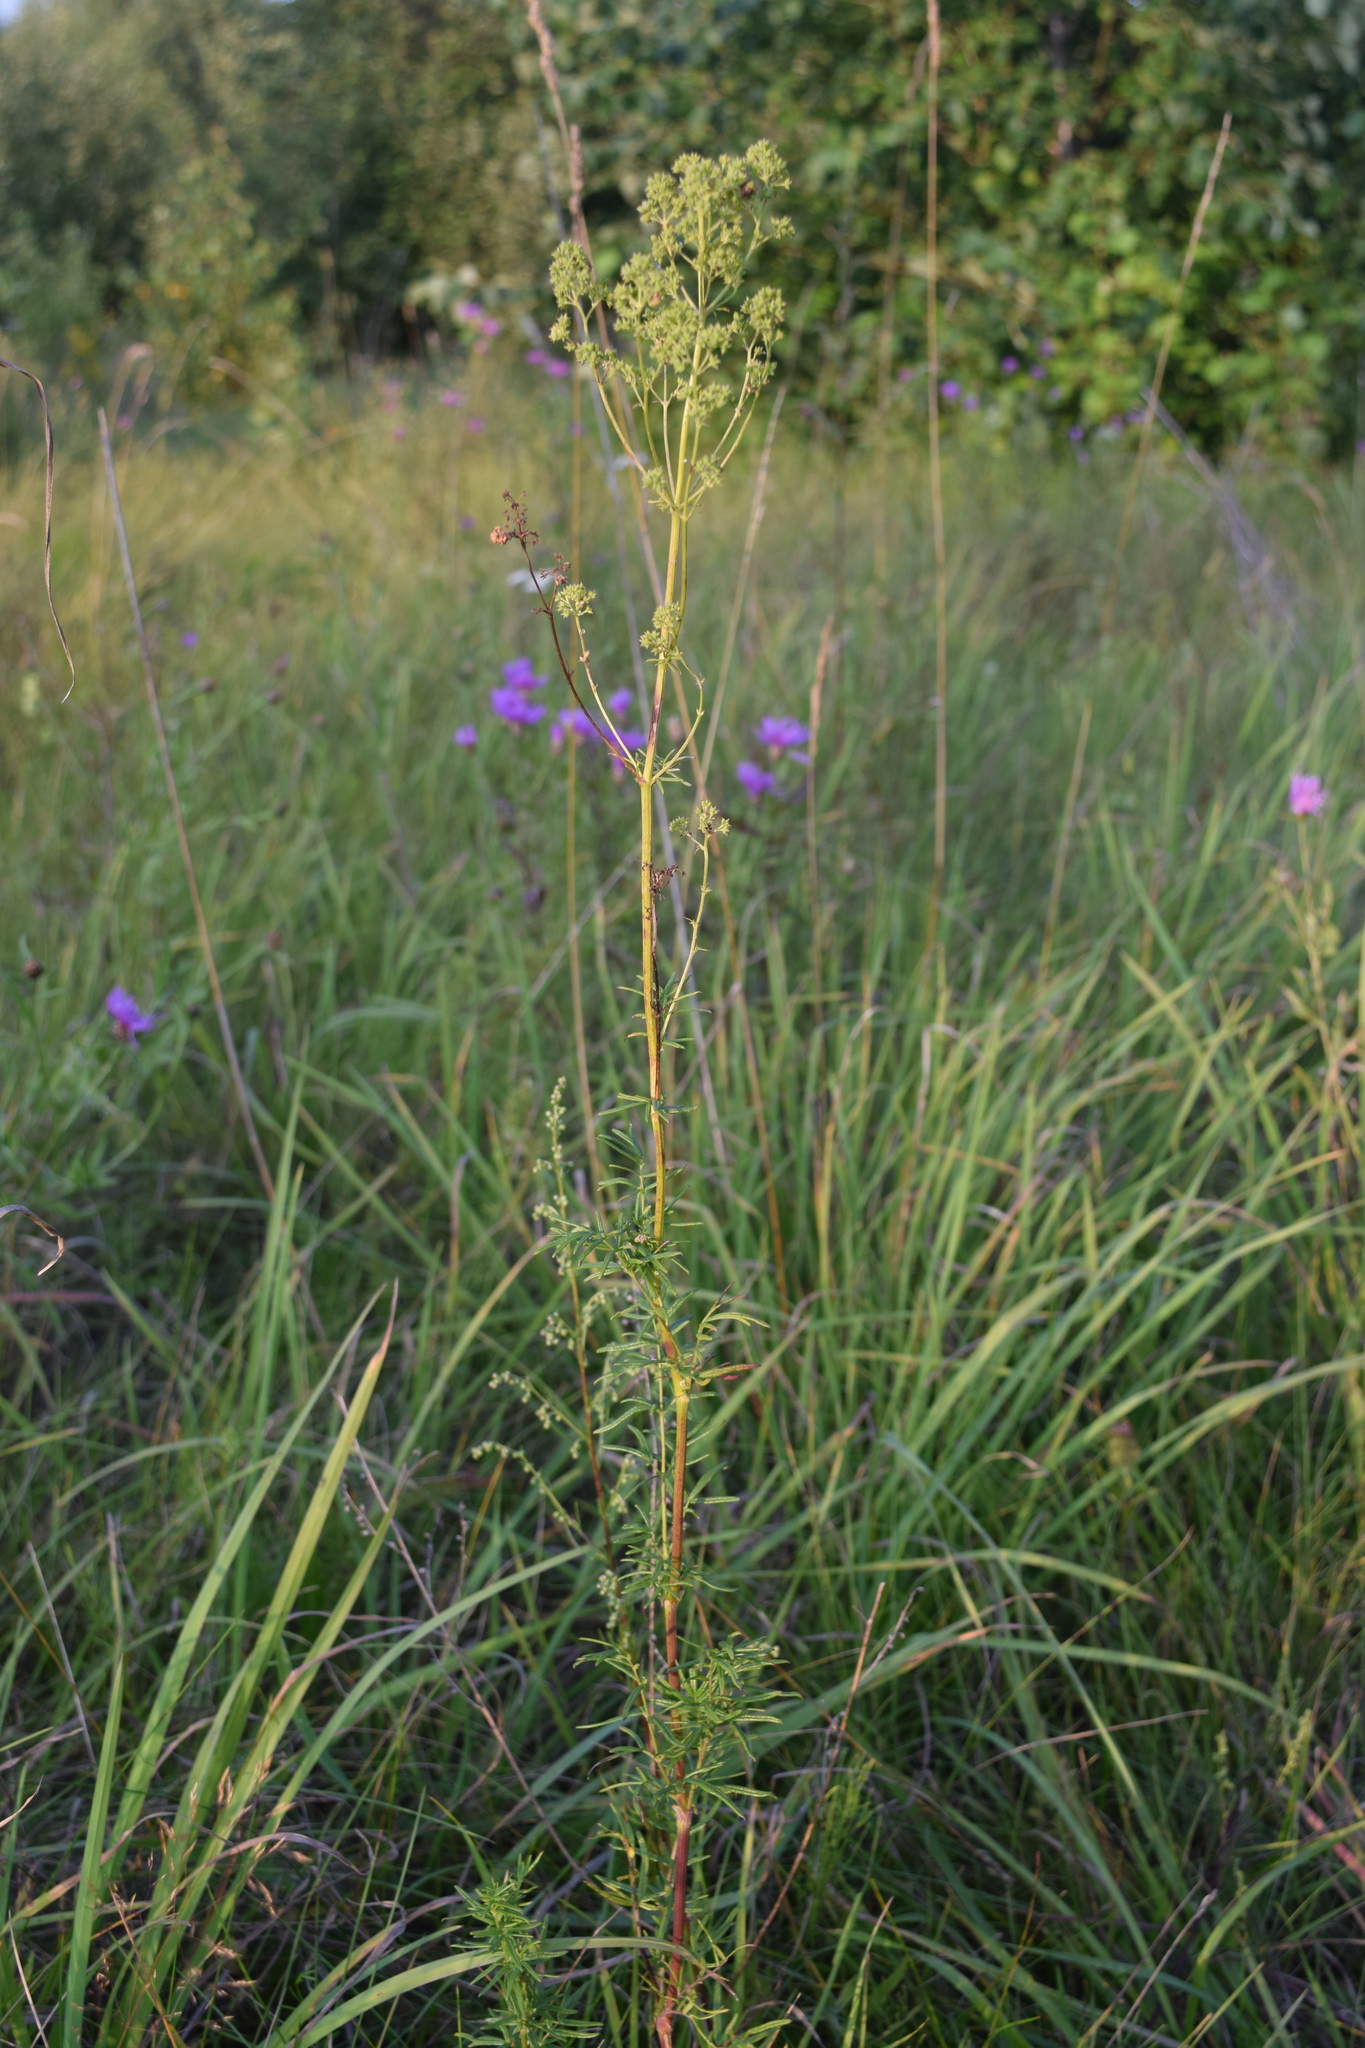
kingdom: Plantae
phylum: Tracheophyta
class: Magnoliopsida
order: Ranunculales
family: Ranunculaceae
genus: Thalictrum
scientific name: Thalictrum lucidum
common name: Shining meadow-rue
